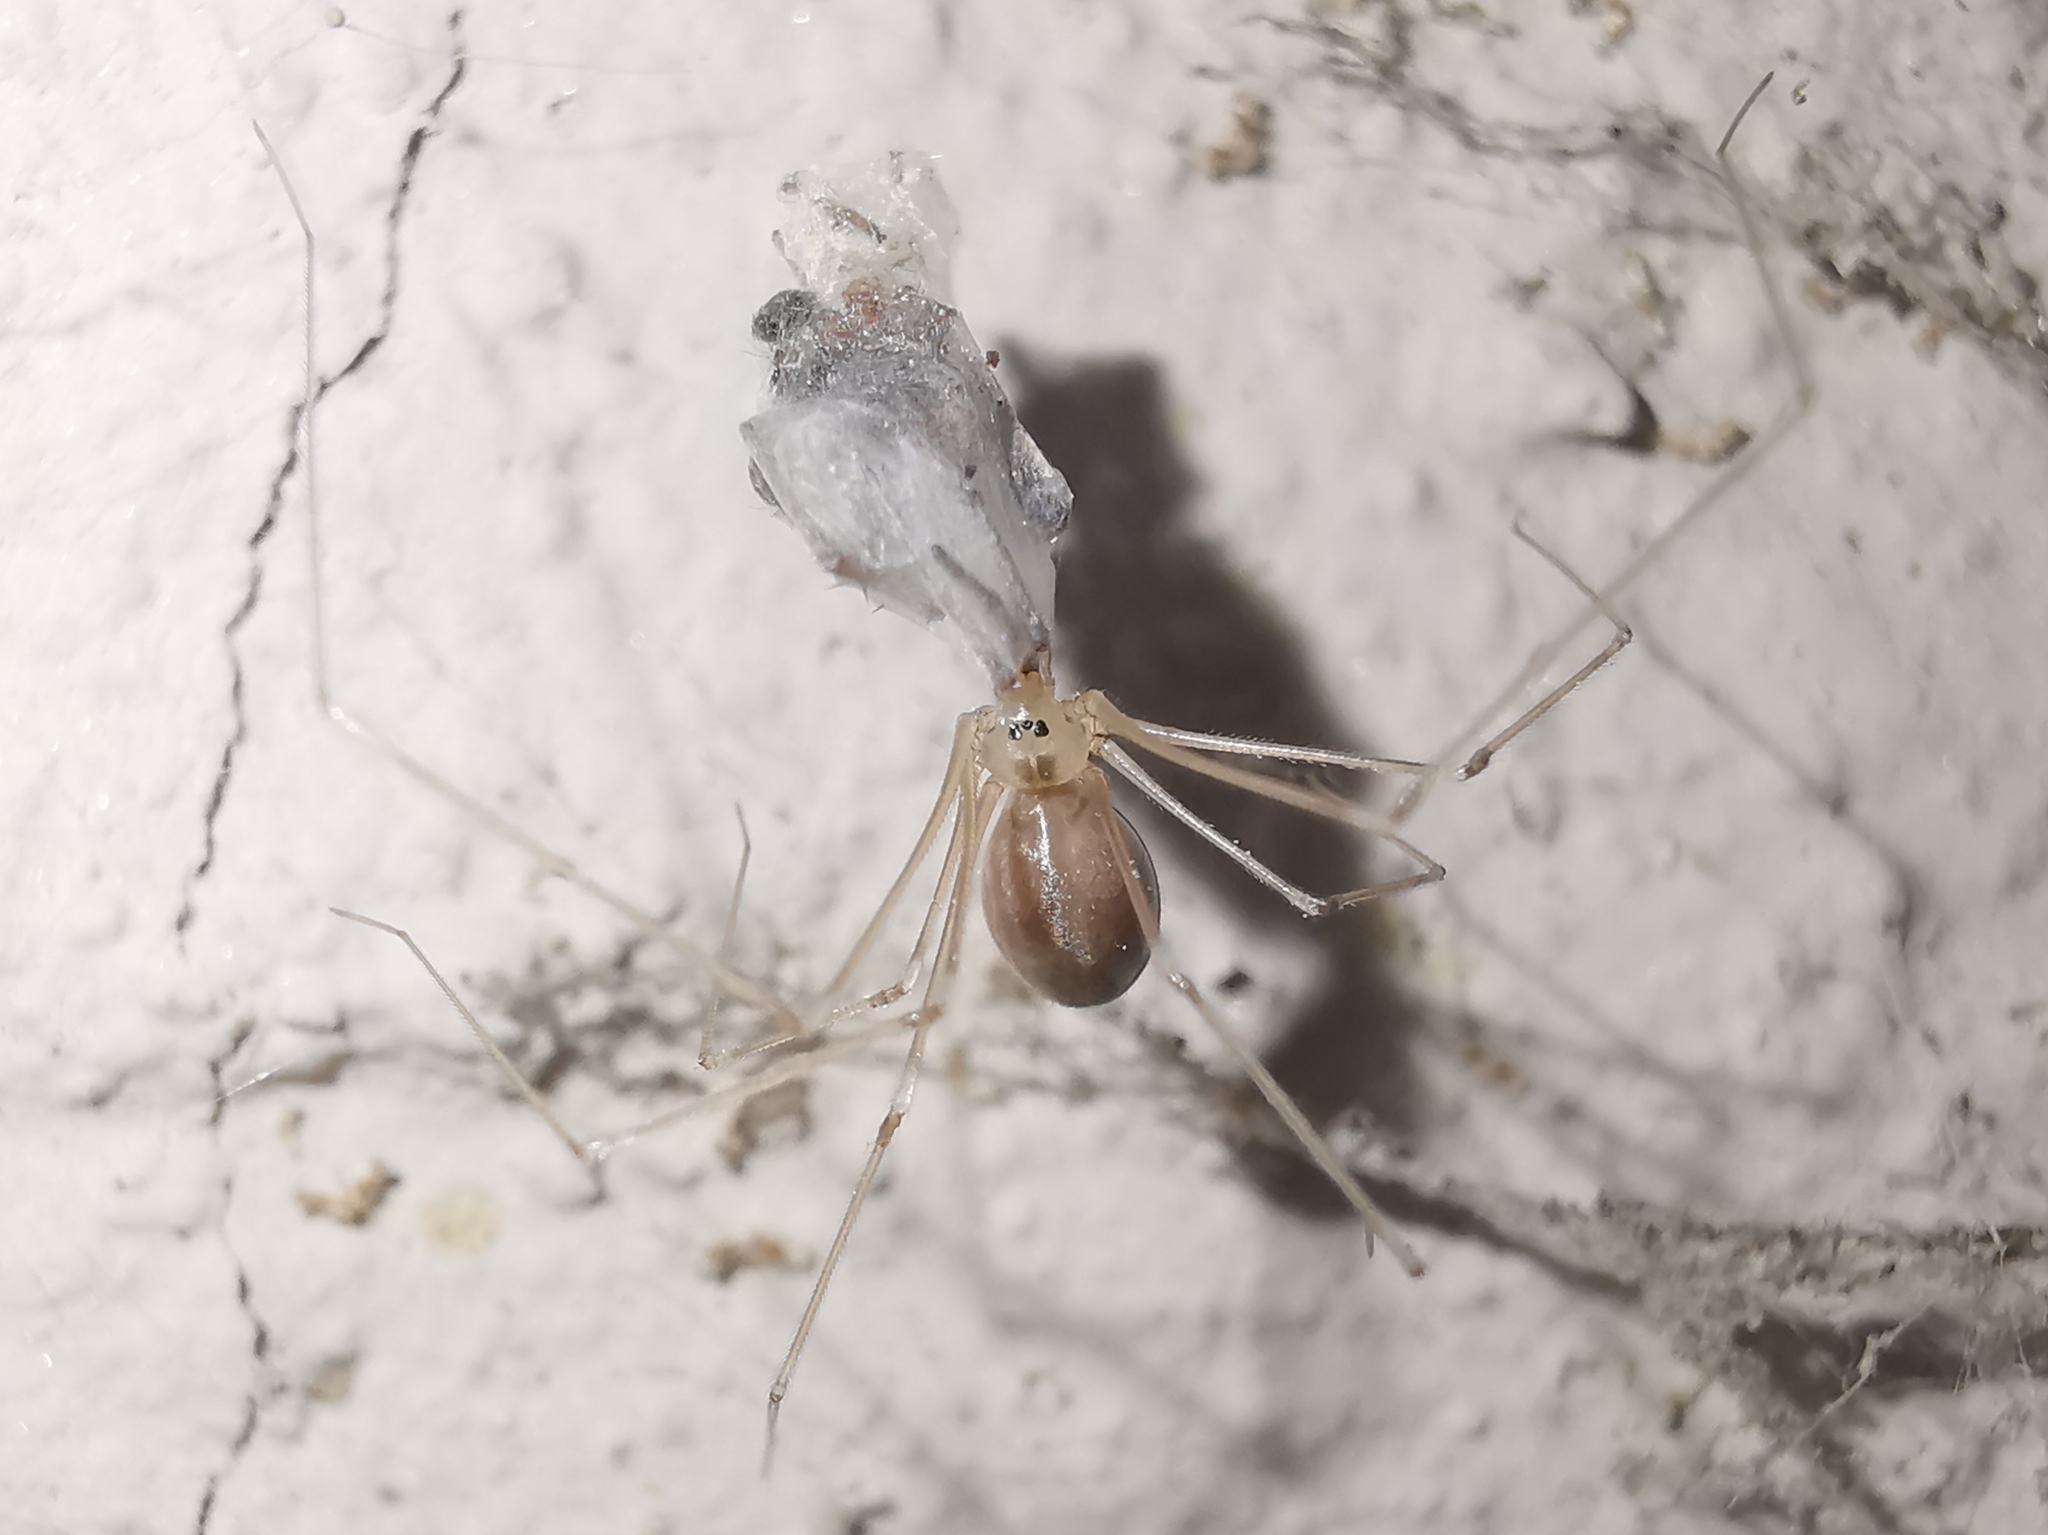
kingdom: Animalia
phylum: Arthropoda
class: Arachnida
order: Araneae
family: Pholcidae
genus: Pholcus
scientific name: Pholcus phalangioides
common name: Longbodied cellar spider
